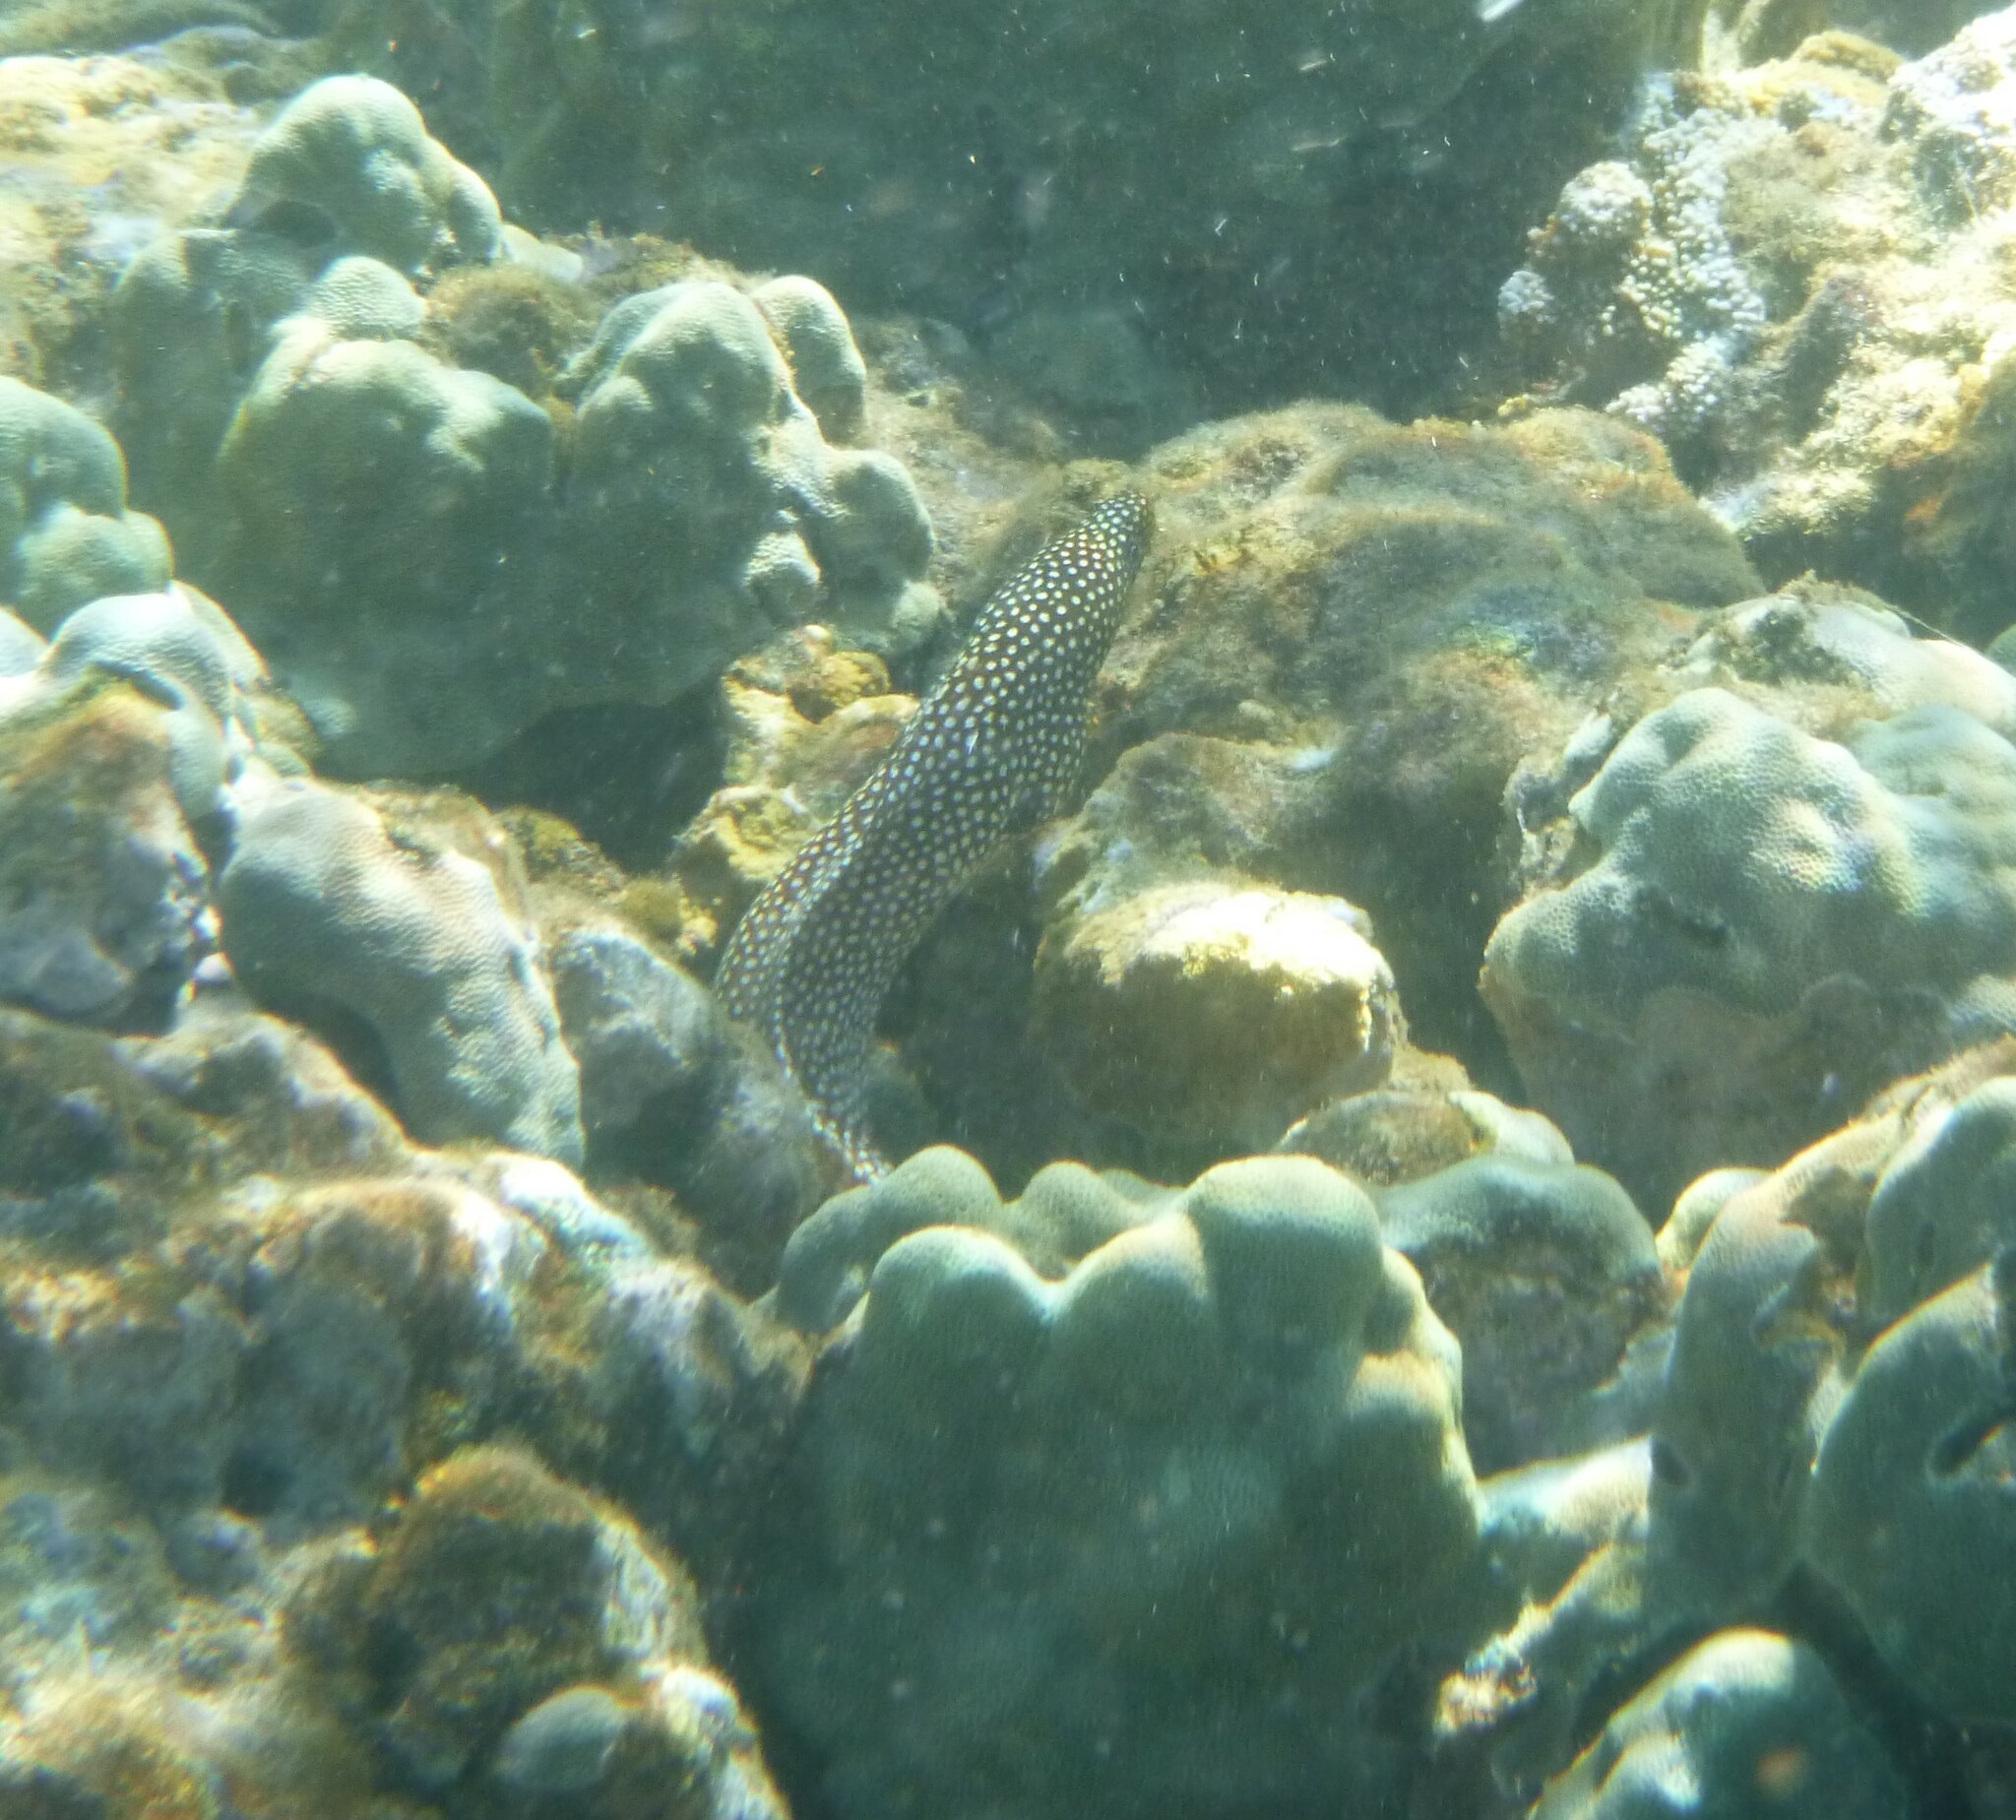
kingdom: Animalia
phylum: Chordata
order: Anguilliformes
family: Muraenidae
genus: Gymnothorax
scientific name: Gymnothorax meleagris
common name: Guineafowl moray
